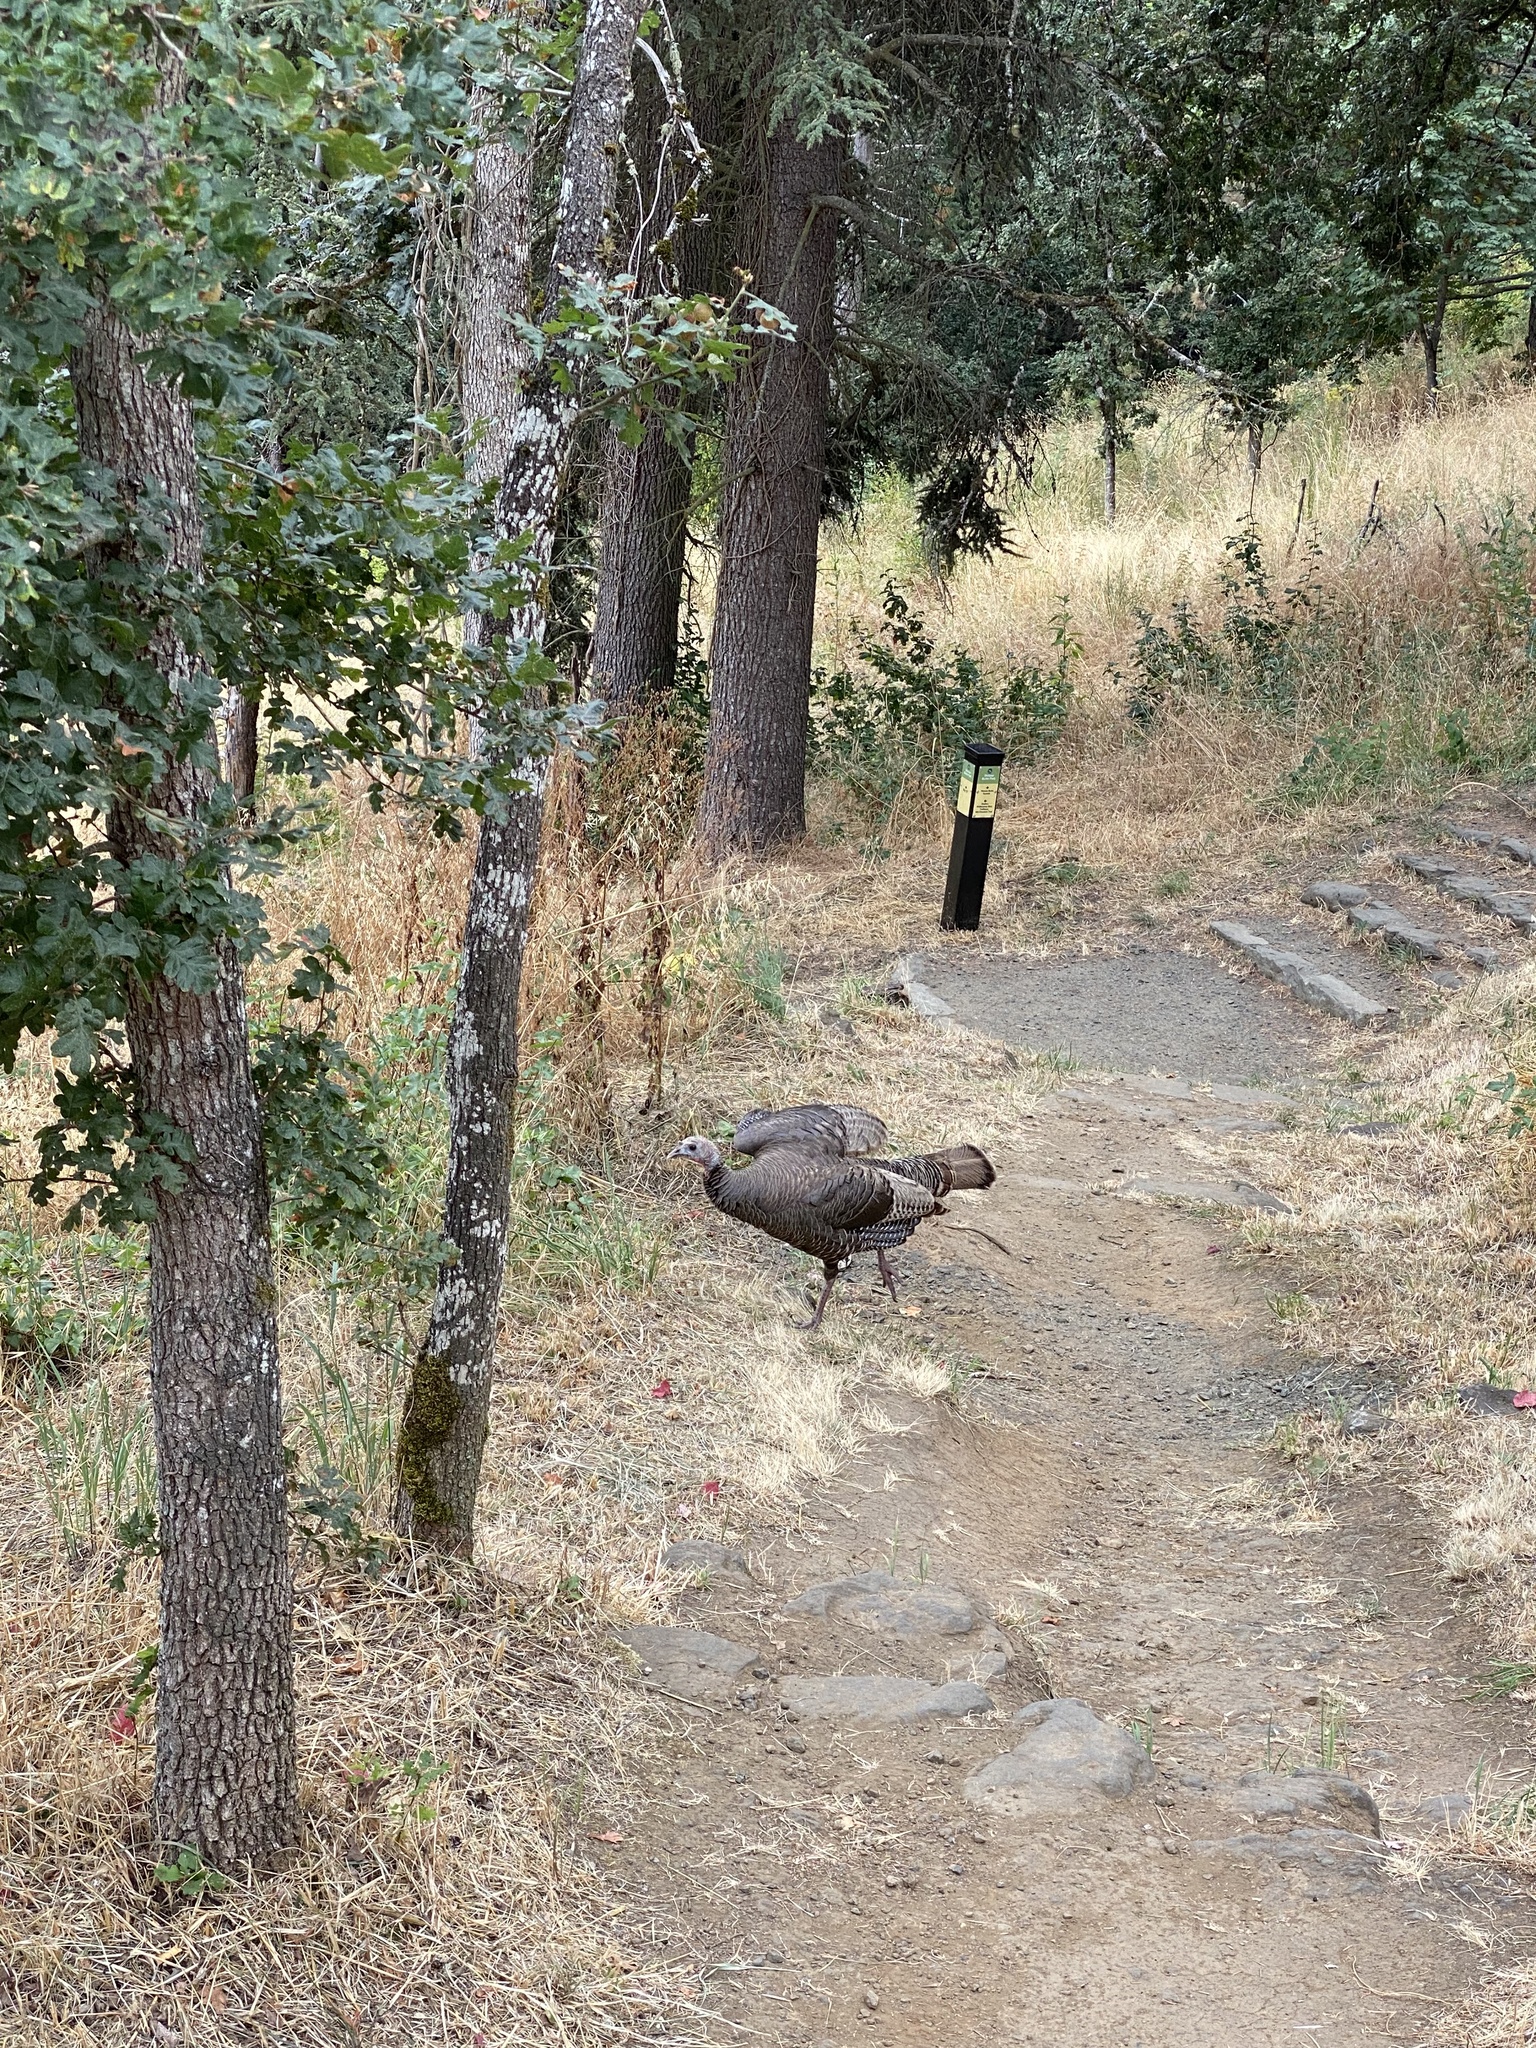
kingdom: Animalia
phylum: Chordata
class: Aves
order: Galliformes
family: Phasianidae
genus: Meleagris
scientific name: Meleagris gallopavo
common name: Wild turkey
